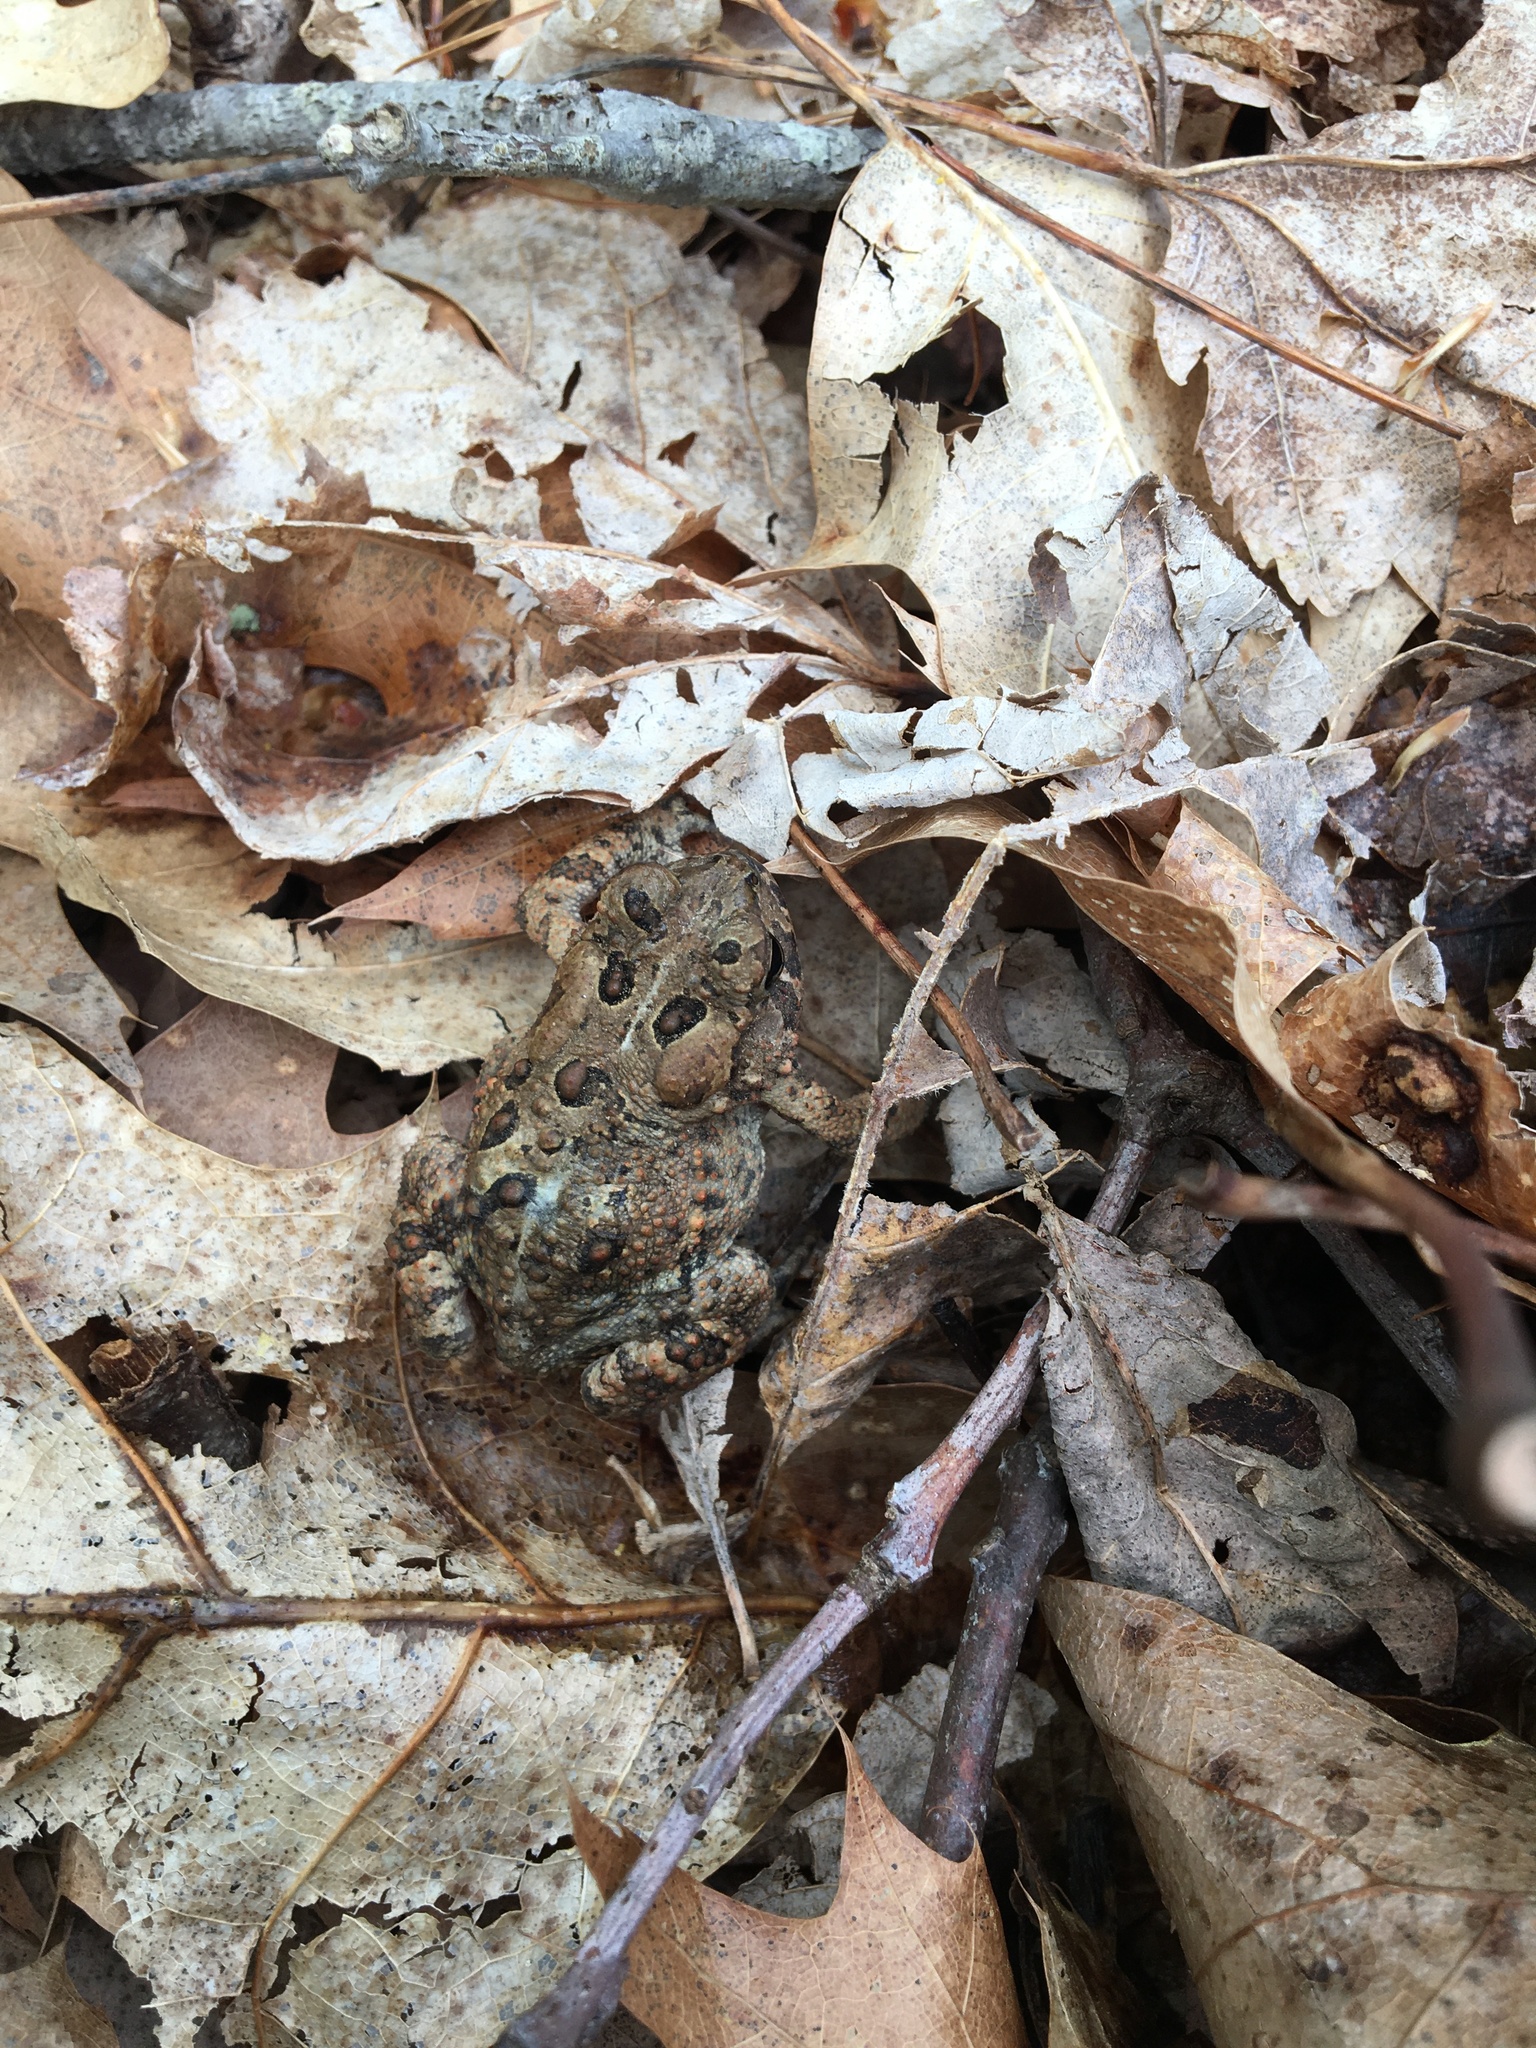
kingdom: Animalia
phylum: Chordata
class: Amphibia
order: Anura
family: Bufonidae
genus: Anaxyrus
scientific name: Anaxyrus americanus
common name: American toad
